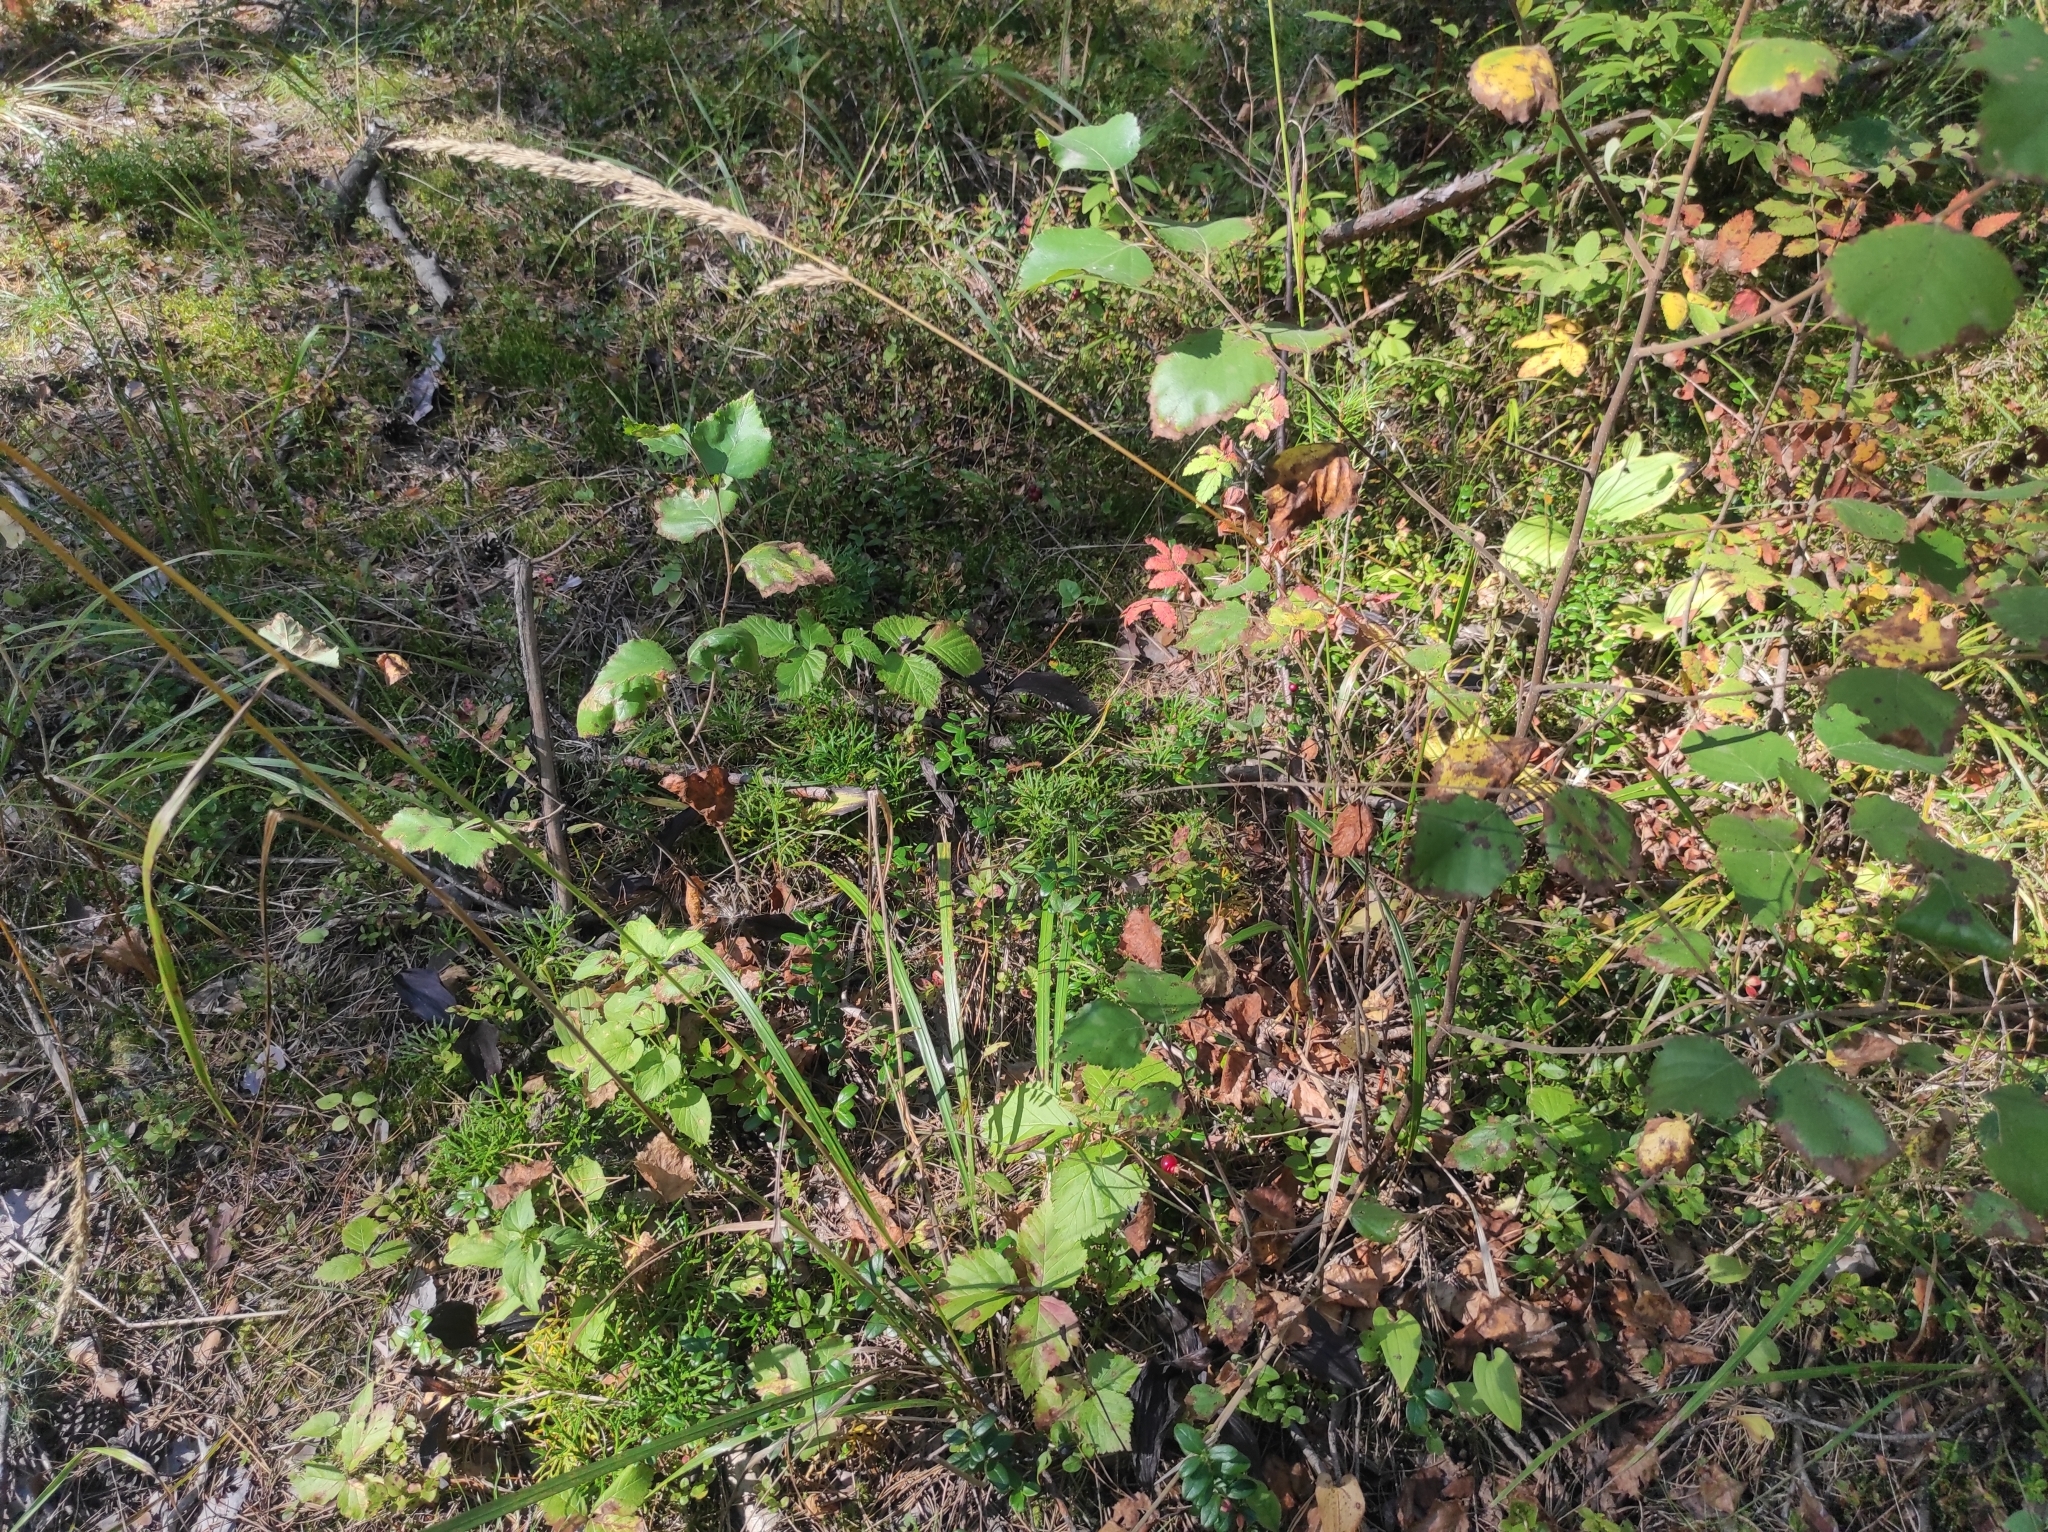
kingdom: Plantae
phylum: Tracheophyta
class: Lycopodiopsida
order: Lycopodiales
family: Lycopodiaceae
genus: Diphasiastrum
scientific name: Diphasiastrum complanatum
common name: Northern running-pine
